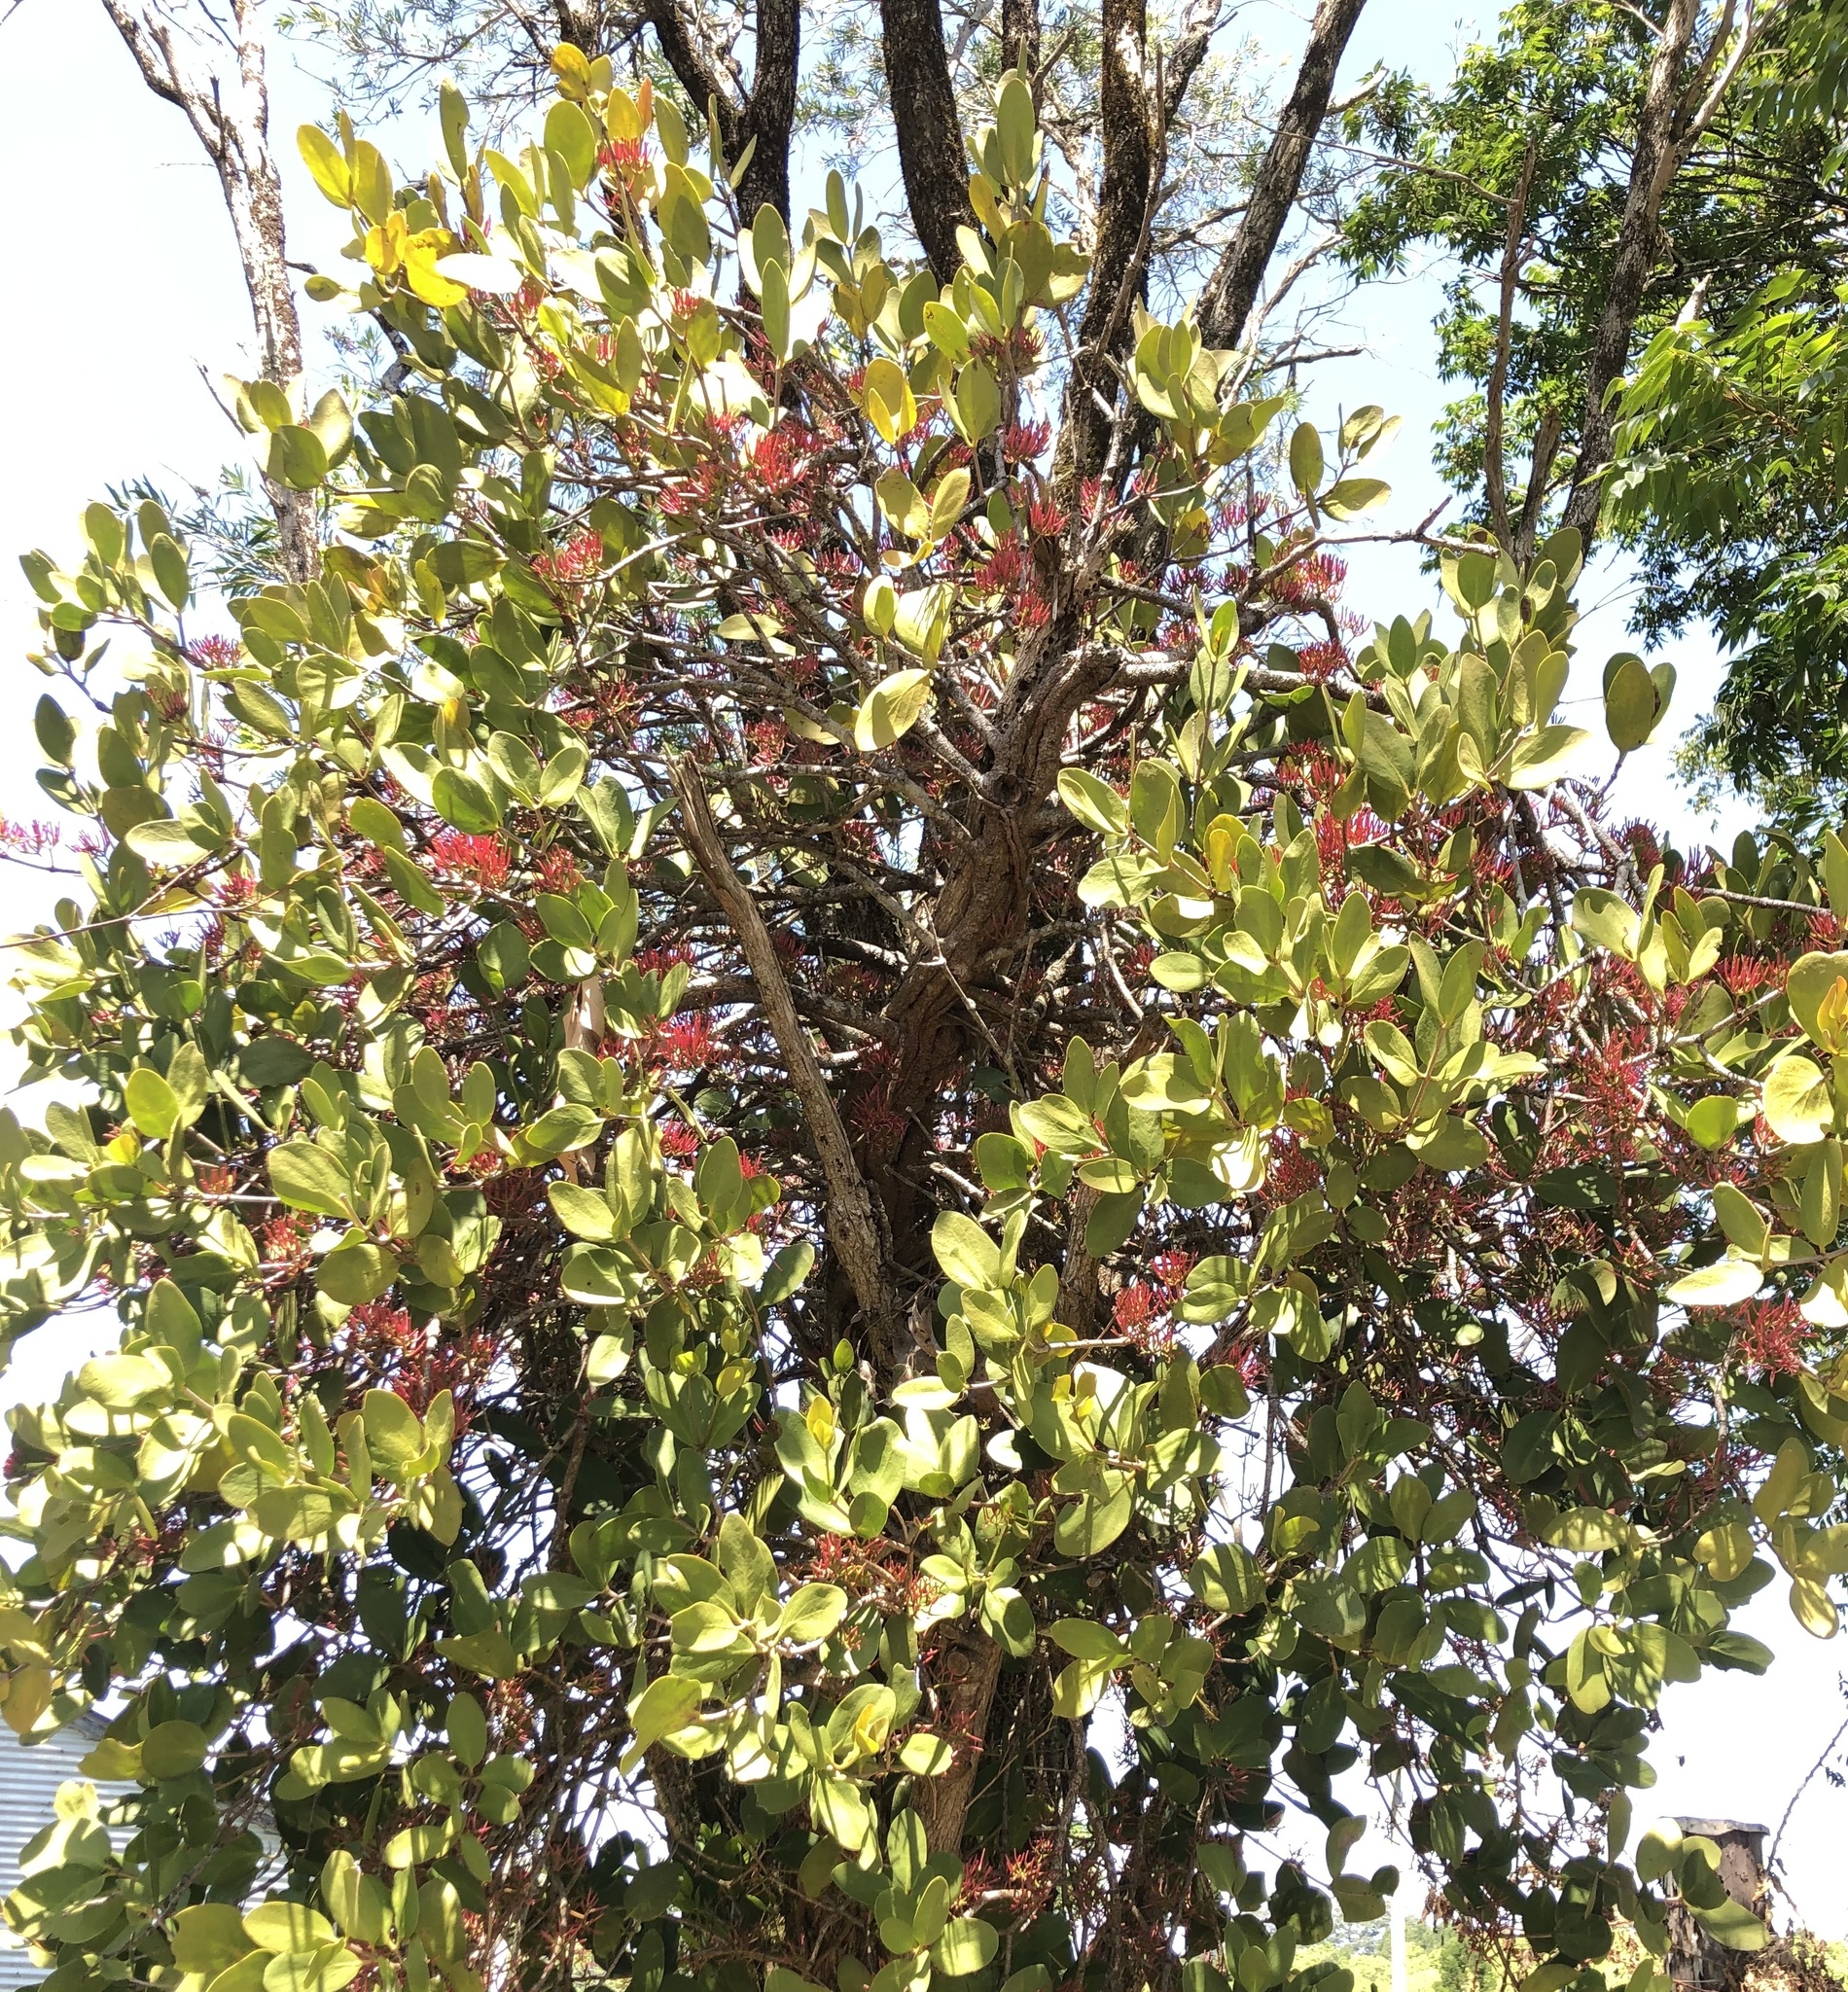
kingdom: Plantae
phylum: Tracheophyta
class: Magnoliopsida
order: Santalales
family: Loranthaceae
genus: Amyema
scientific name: Amyema plicatula
